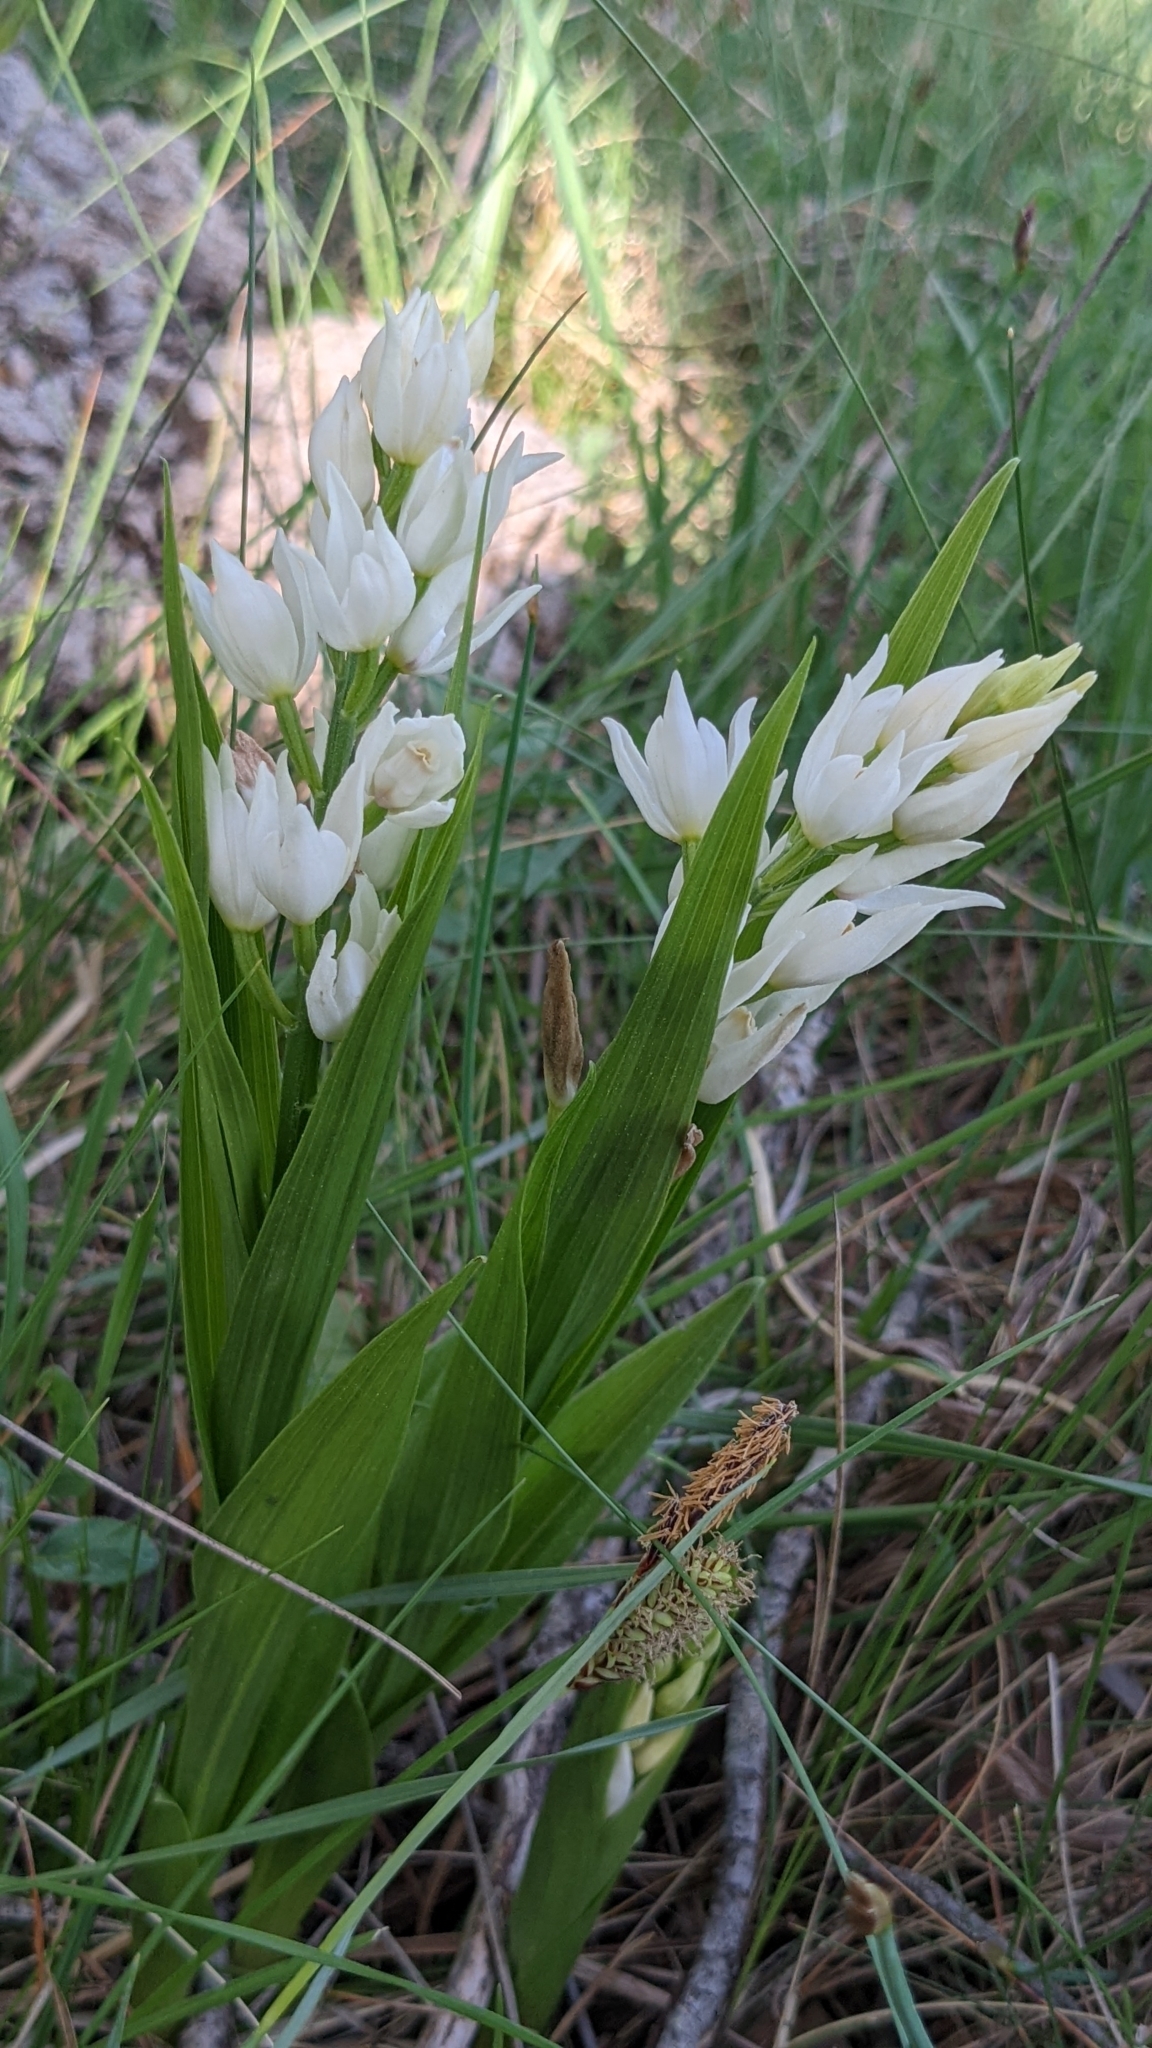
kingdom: Plantae
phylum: Tracheophyta
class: Liliopsida
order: Asparagales
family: Orchidaceae
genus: Cephalanthera
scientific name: Cephalanthera longifolia
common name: Narrow-leaved helleborine
